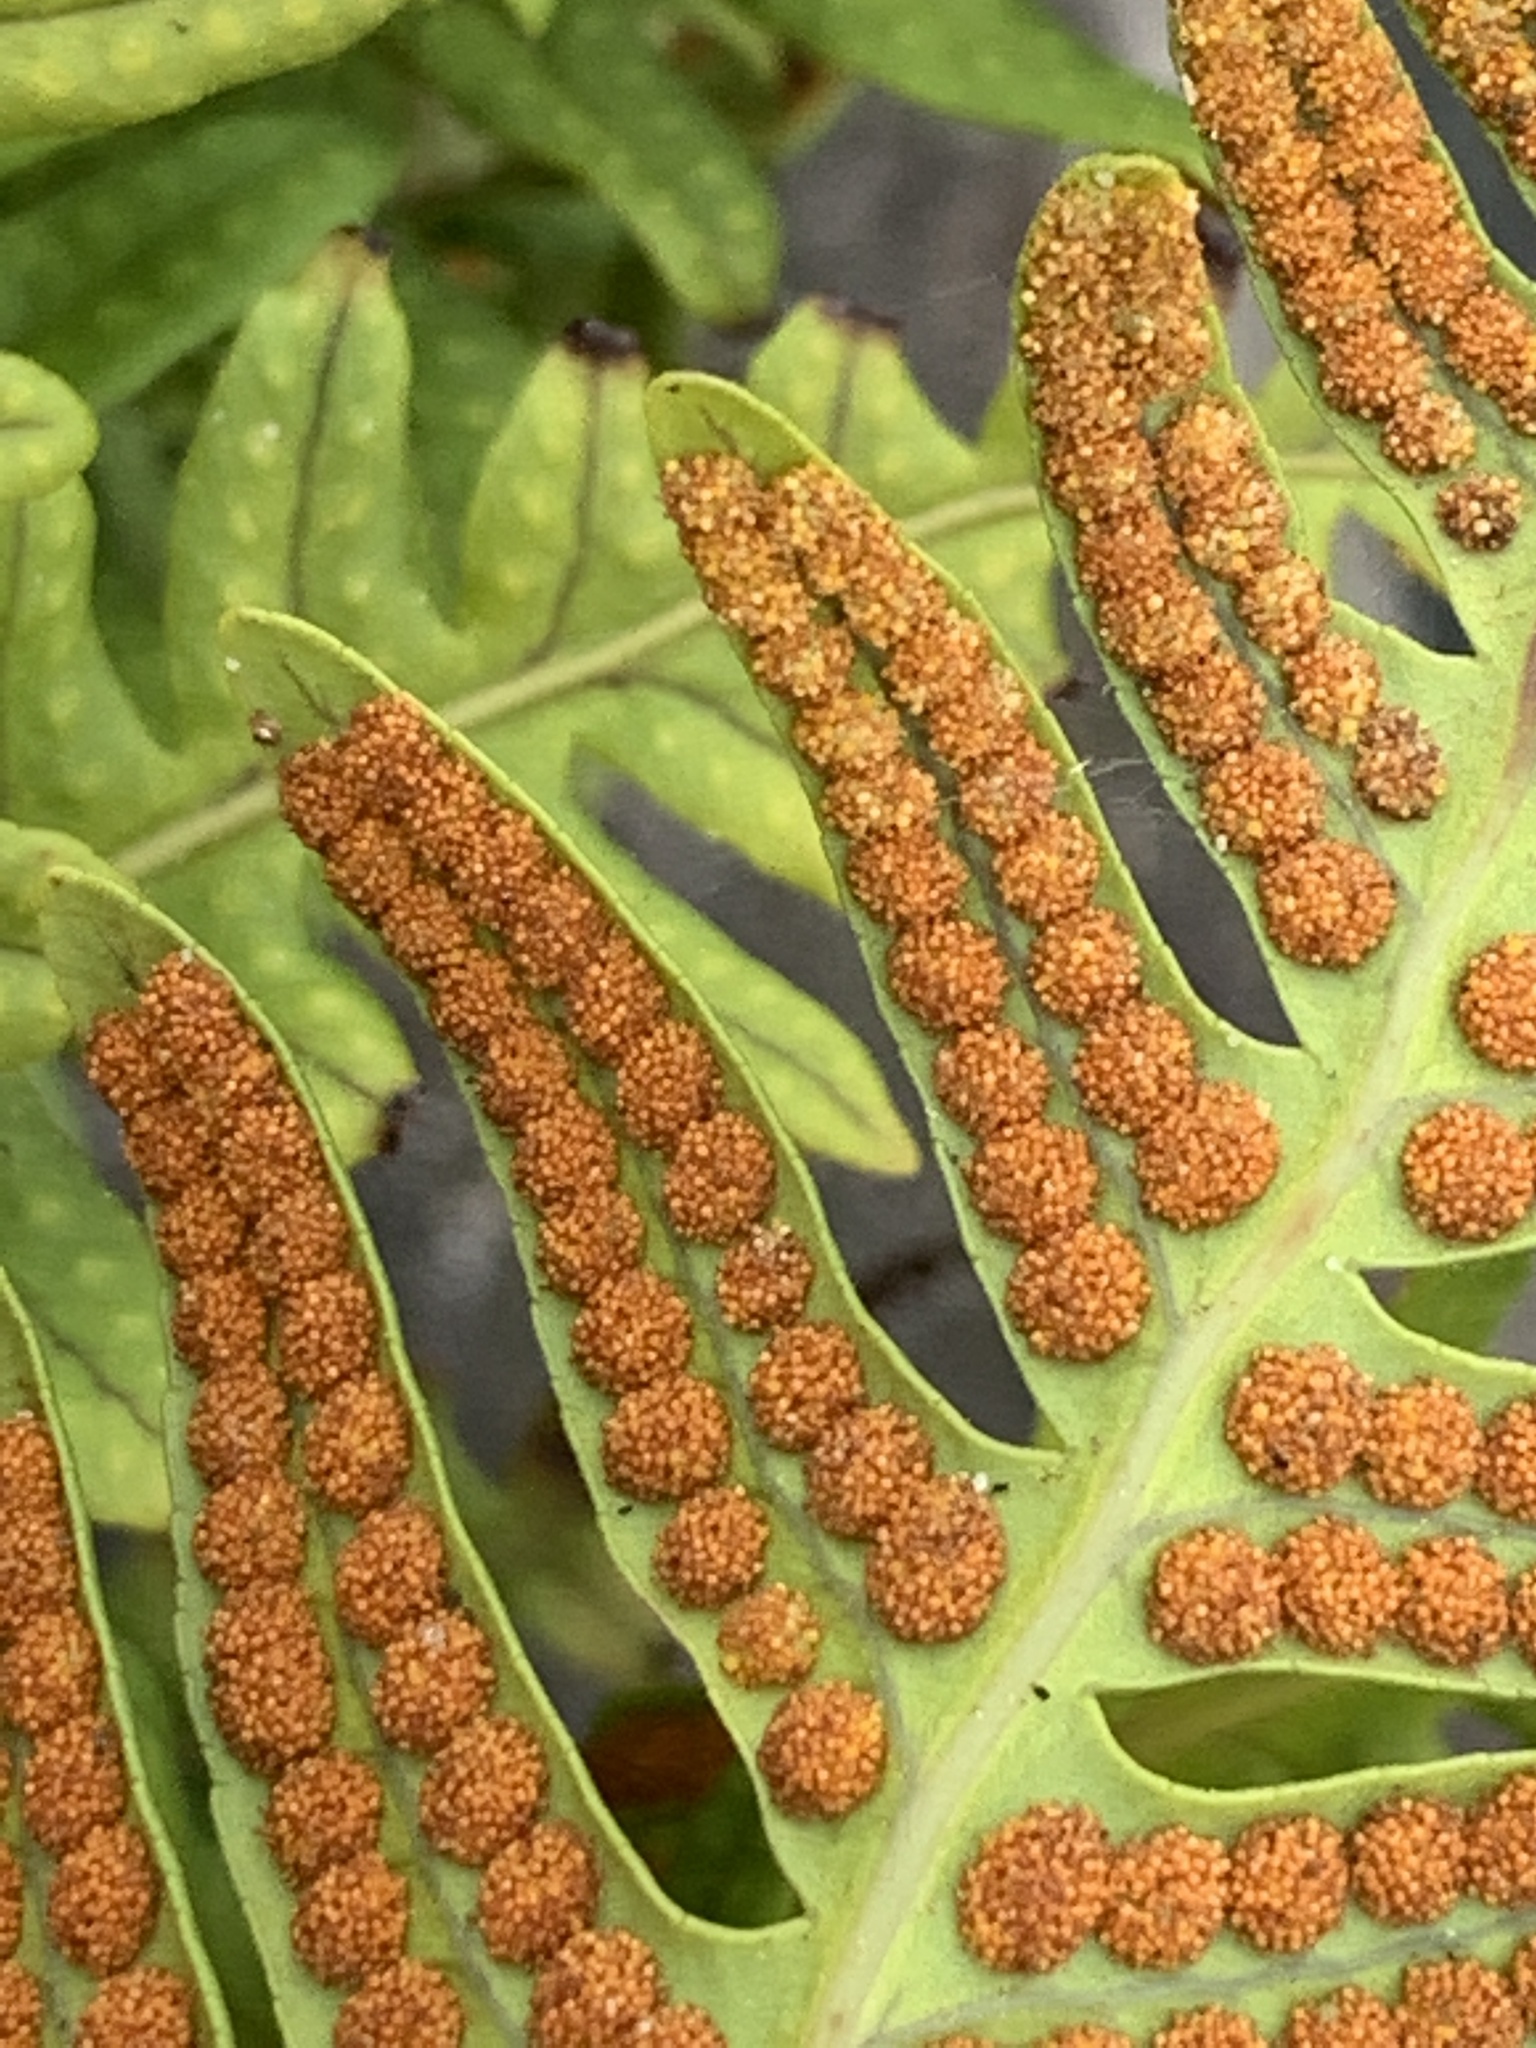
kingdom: Plantae
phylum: Tracheophyta
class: Polypodiopsida
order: Polypodiales
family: Polypodiaceae
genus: Polypodium
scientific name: Polypodium vulgare
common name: Common polypody
